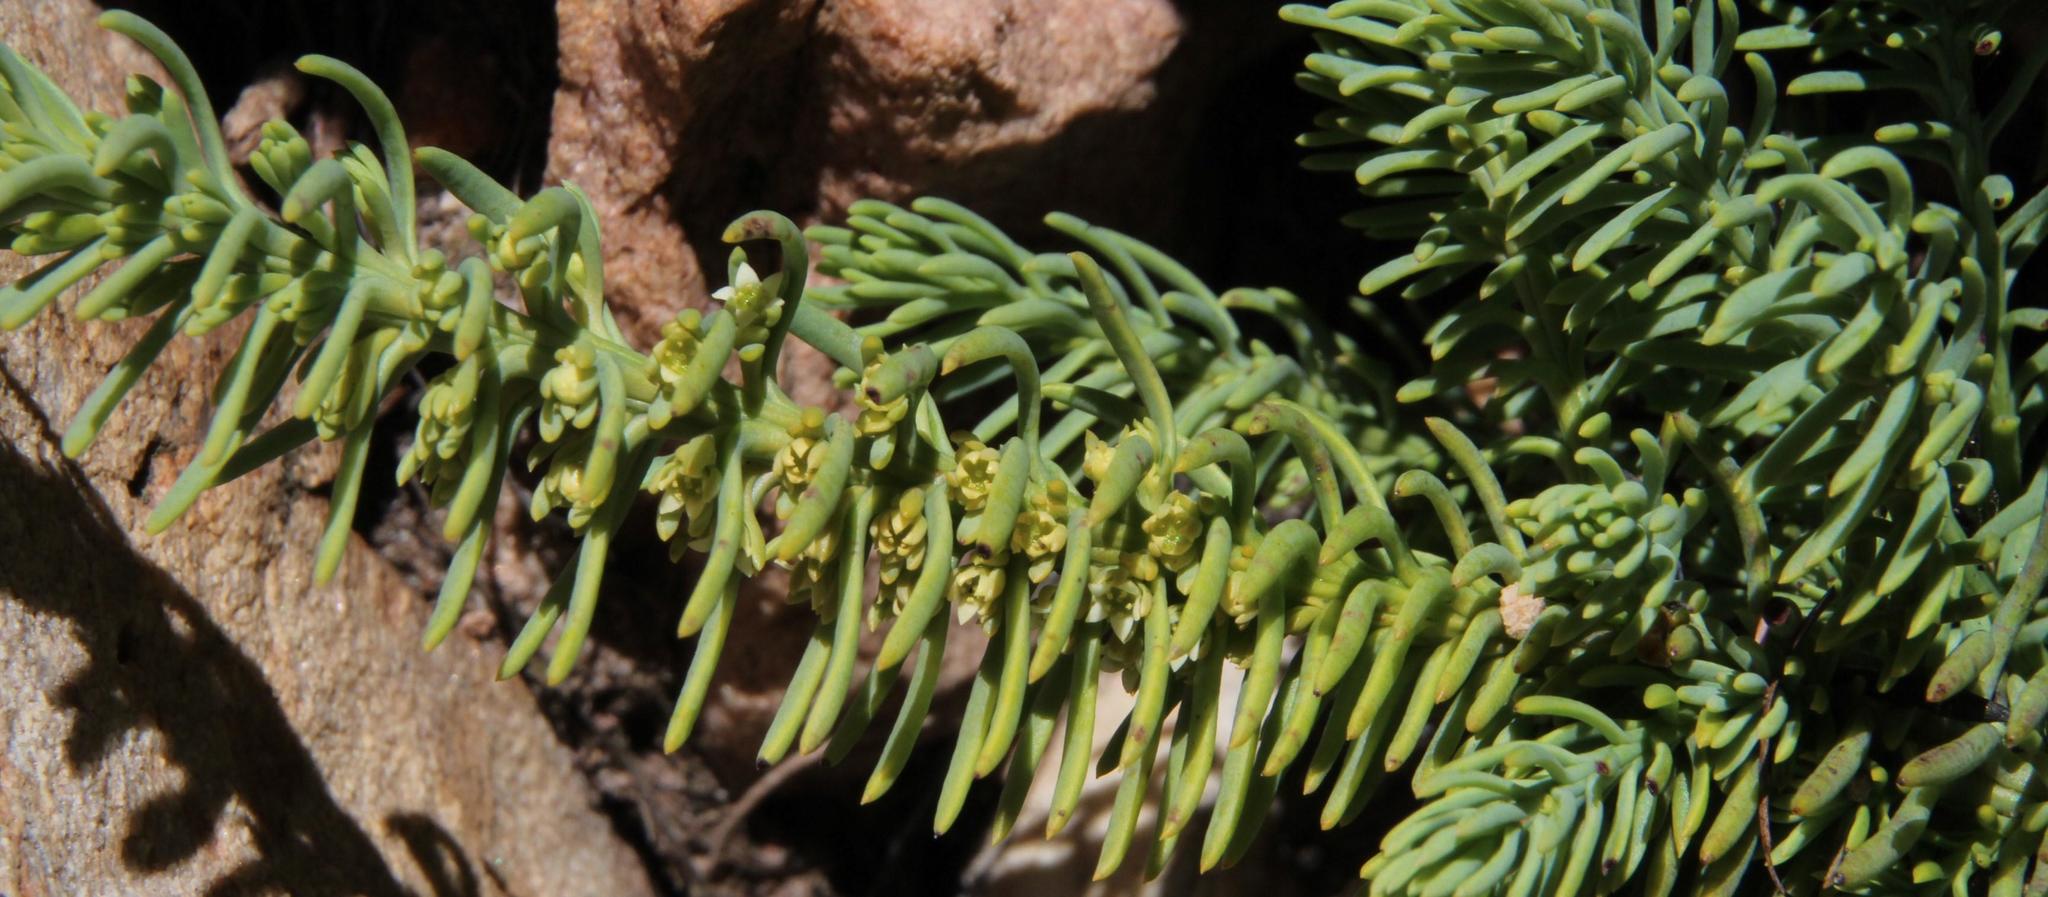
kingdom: Plantae
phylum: Tracheophyta
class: Magnoliopsida
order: Santalales
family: Thesiaceae
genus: Thesium
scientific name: Thesium oresigenum
